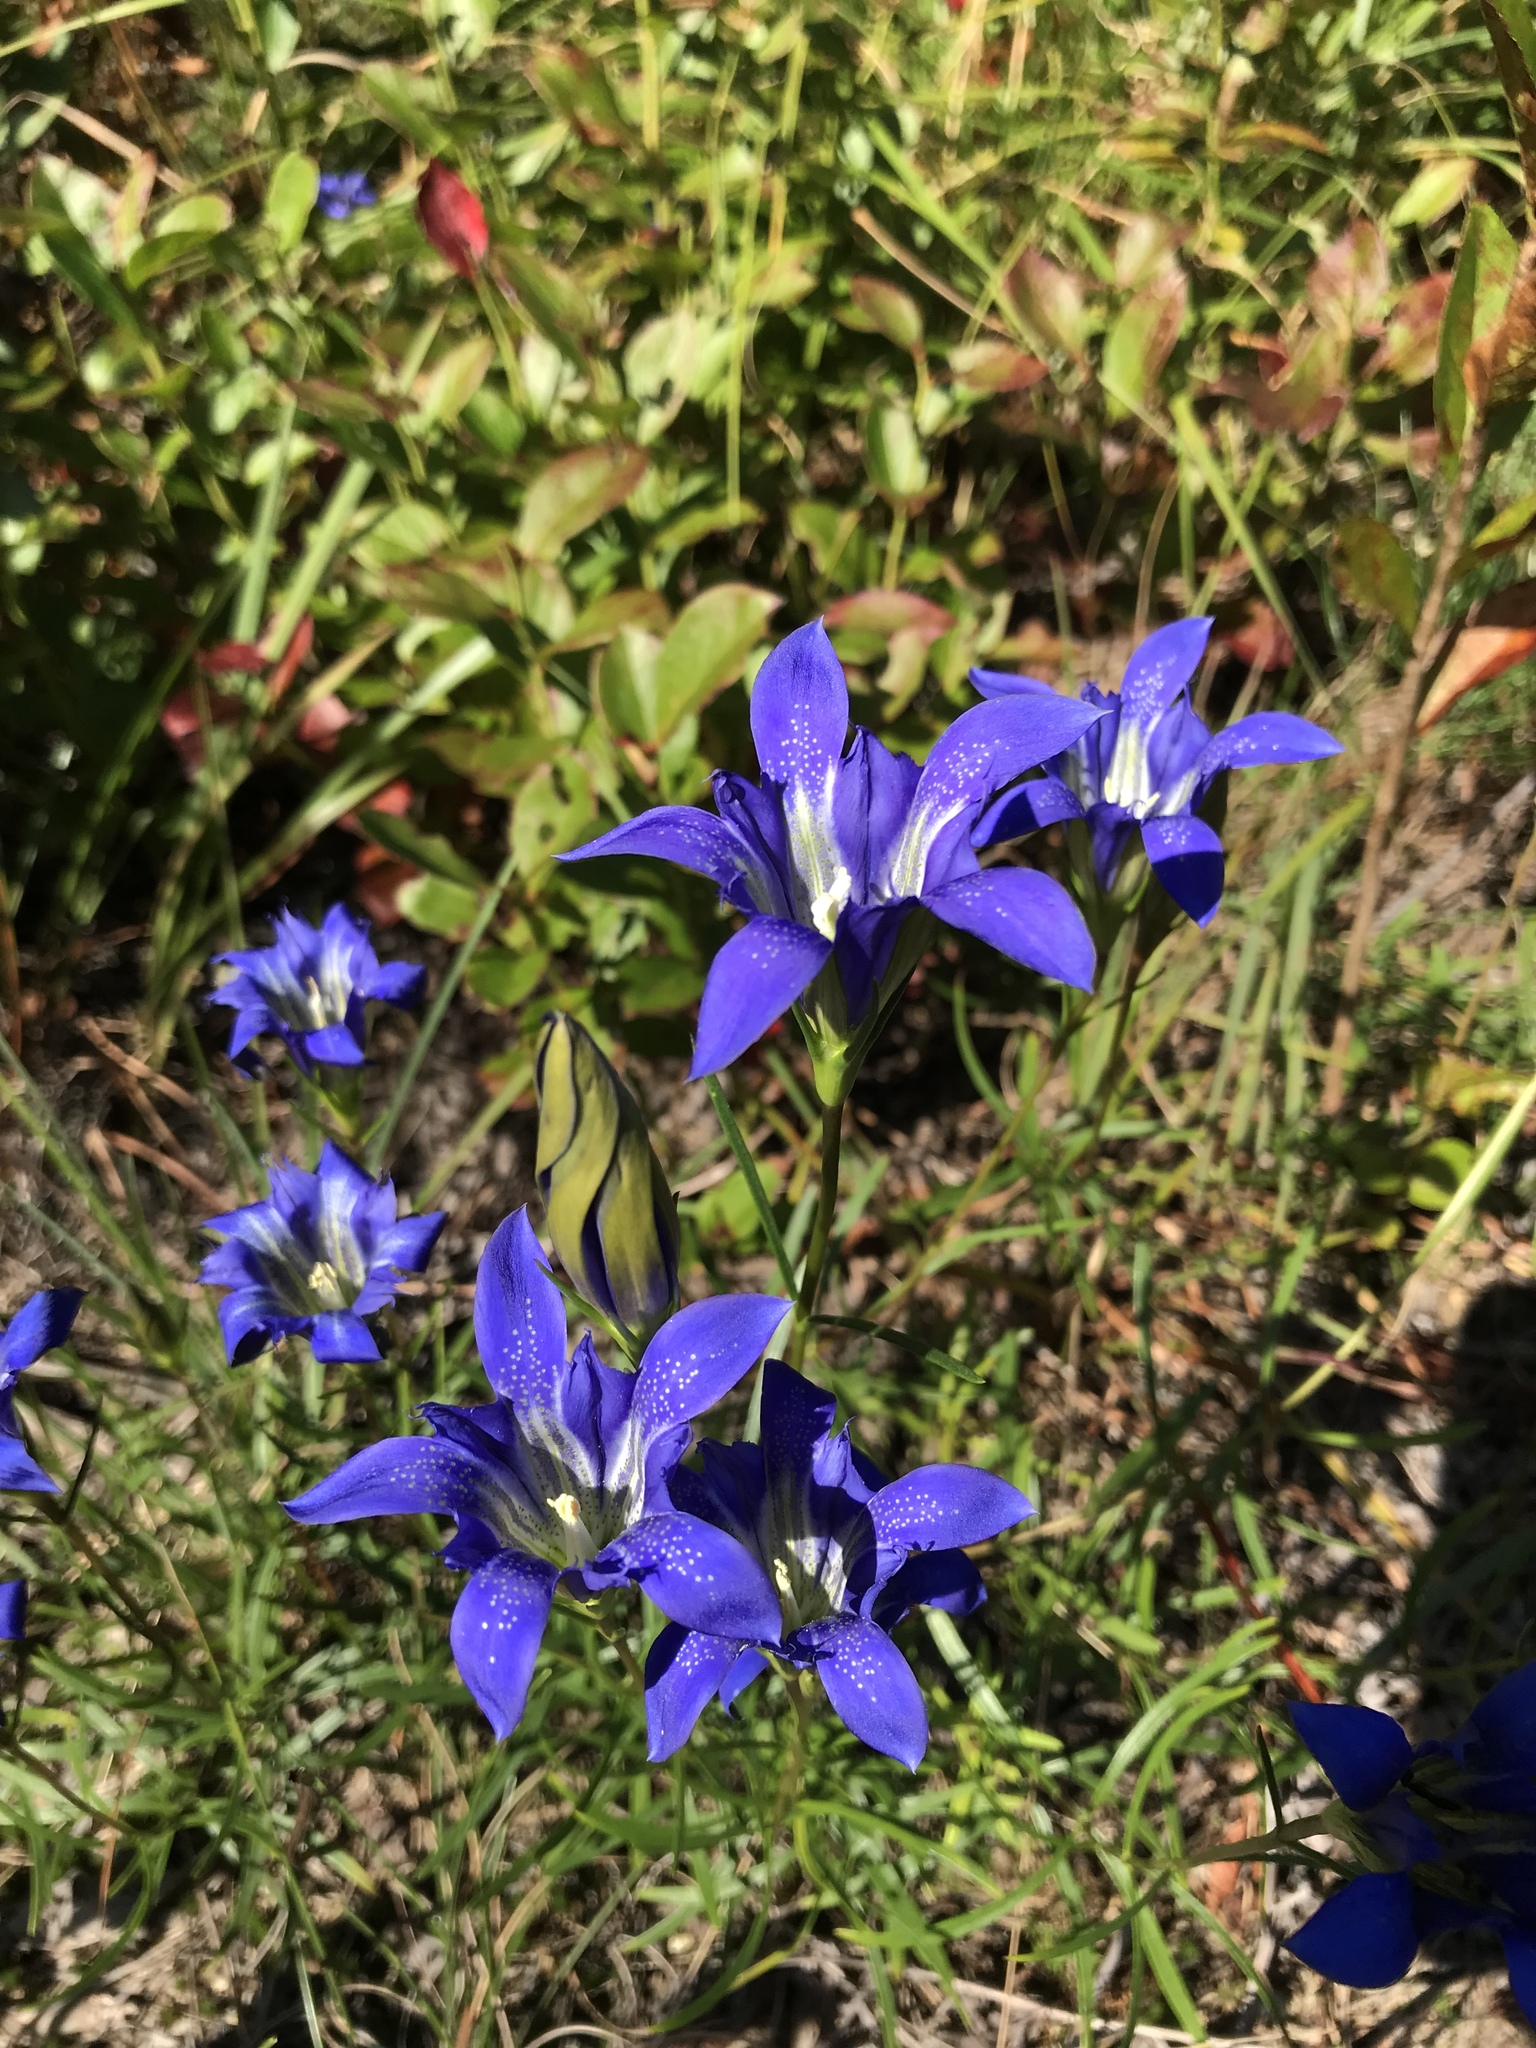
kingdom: Plantae
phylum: Tracheophyta
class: Magnoliopsida
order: Gentianales
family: Gentianaceae
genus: Gentiana
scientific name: Gentiana autumnalis
